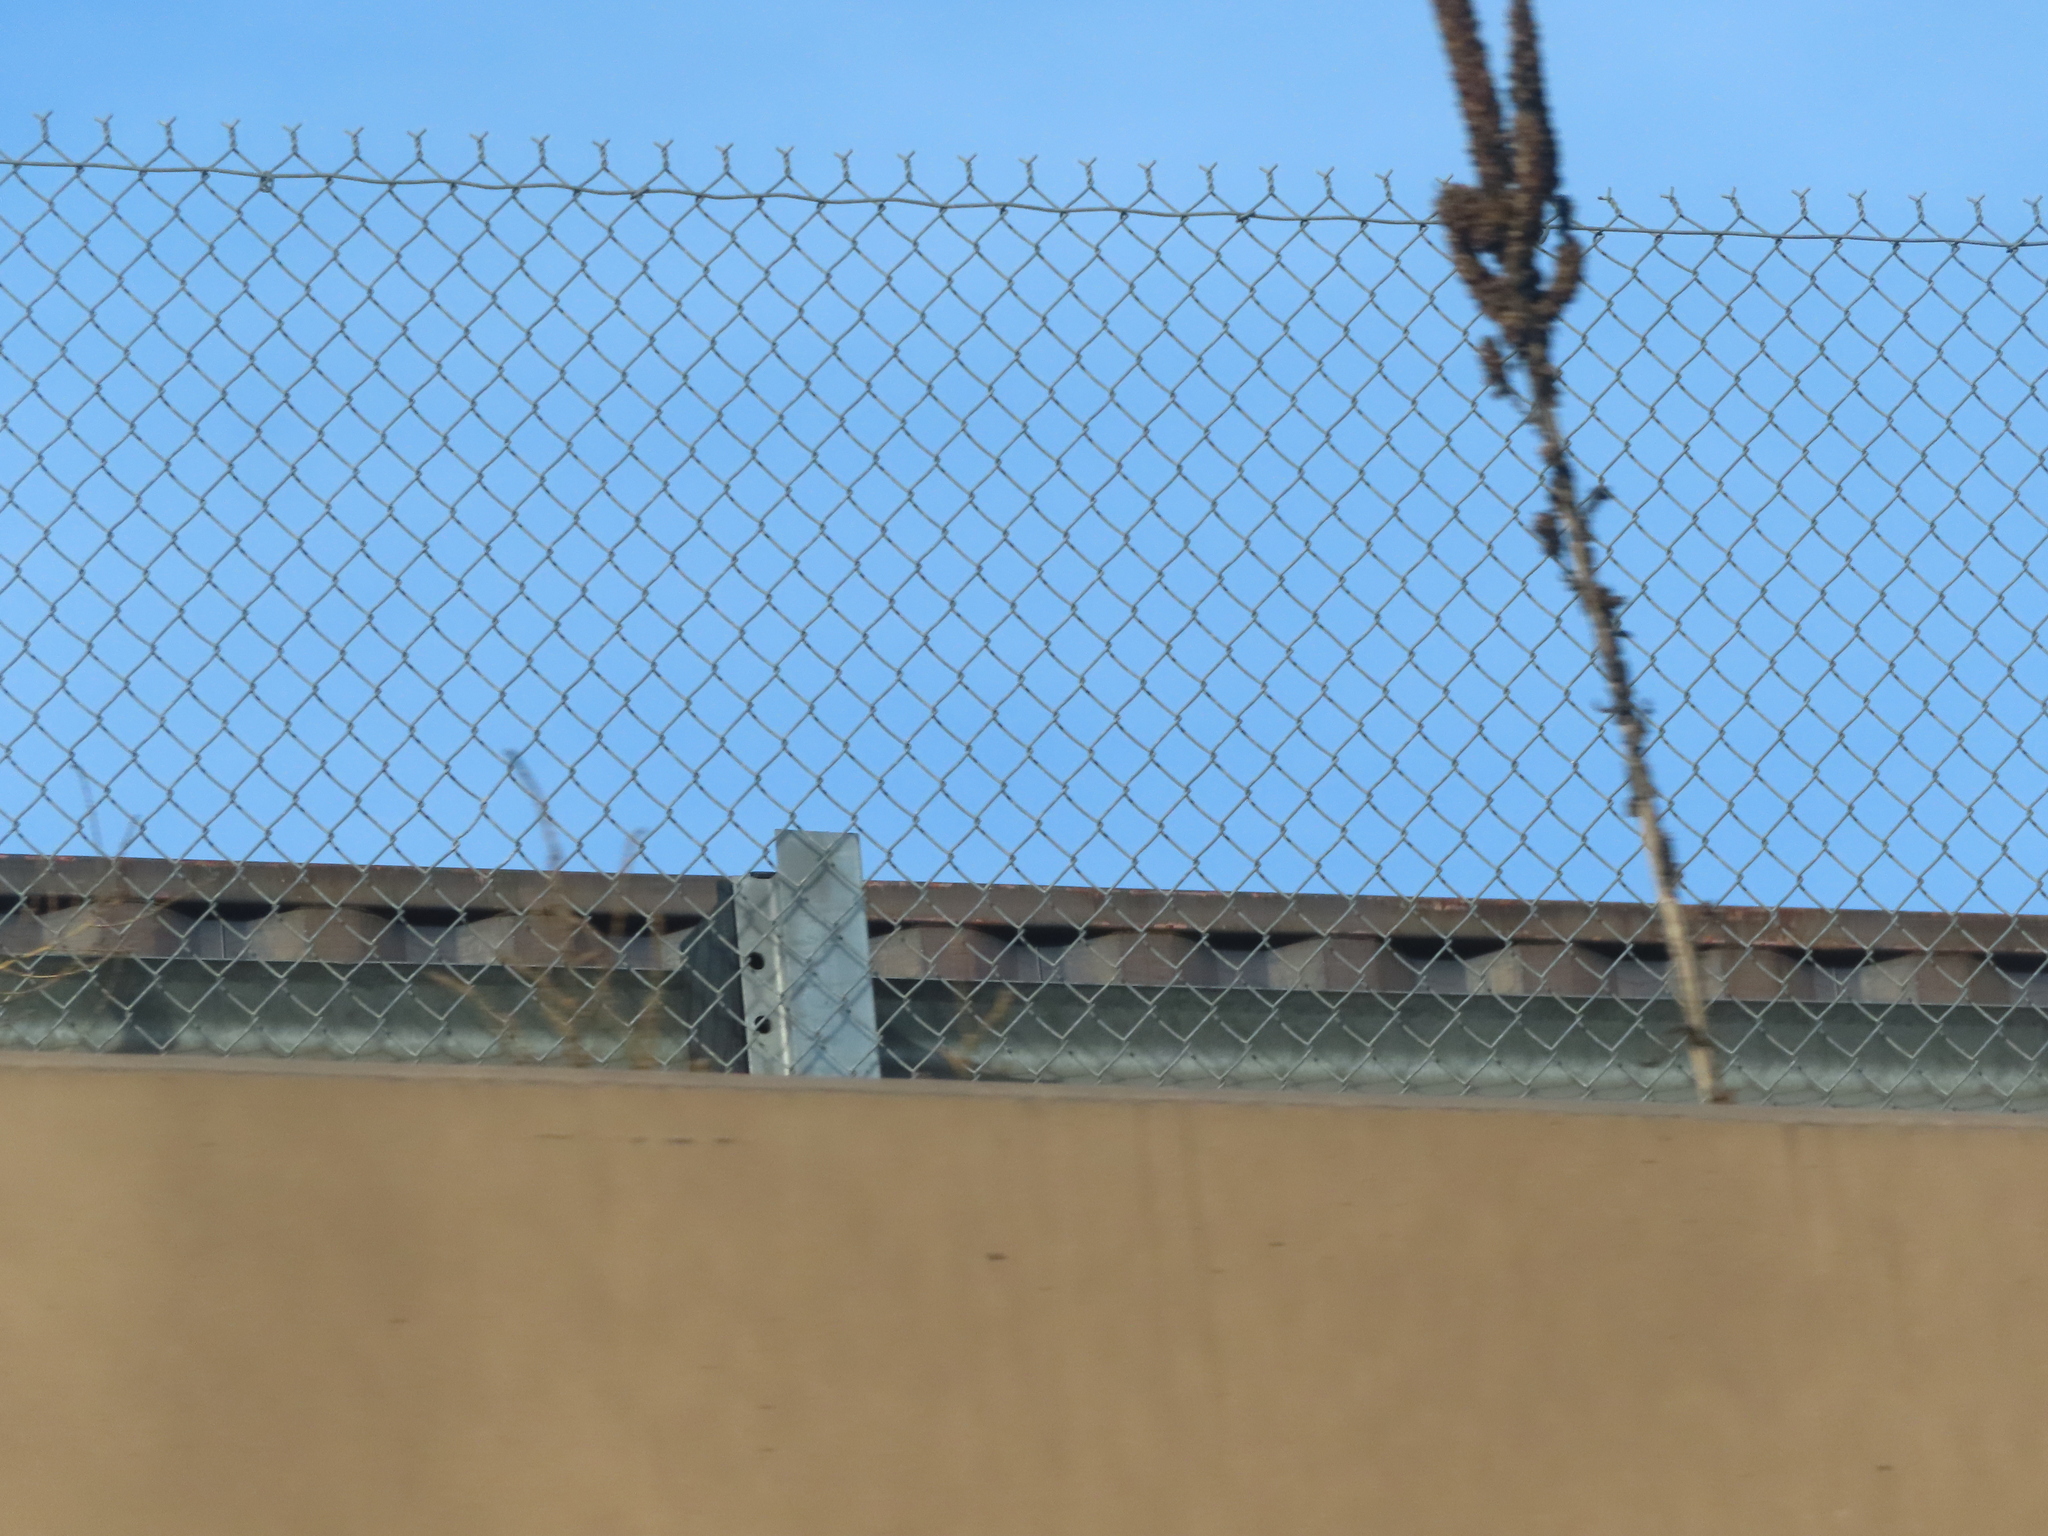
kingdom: Plantae
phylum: Tracheophyta
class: Magnoliopsida
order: Lamiales
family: Scrophulariaceae
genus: Verbascum
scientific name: Verbascum thapsus
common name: Common mullein
